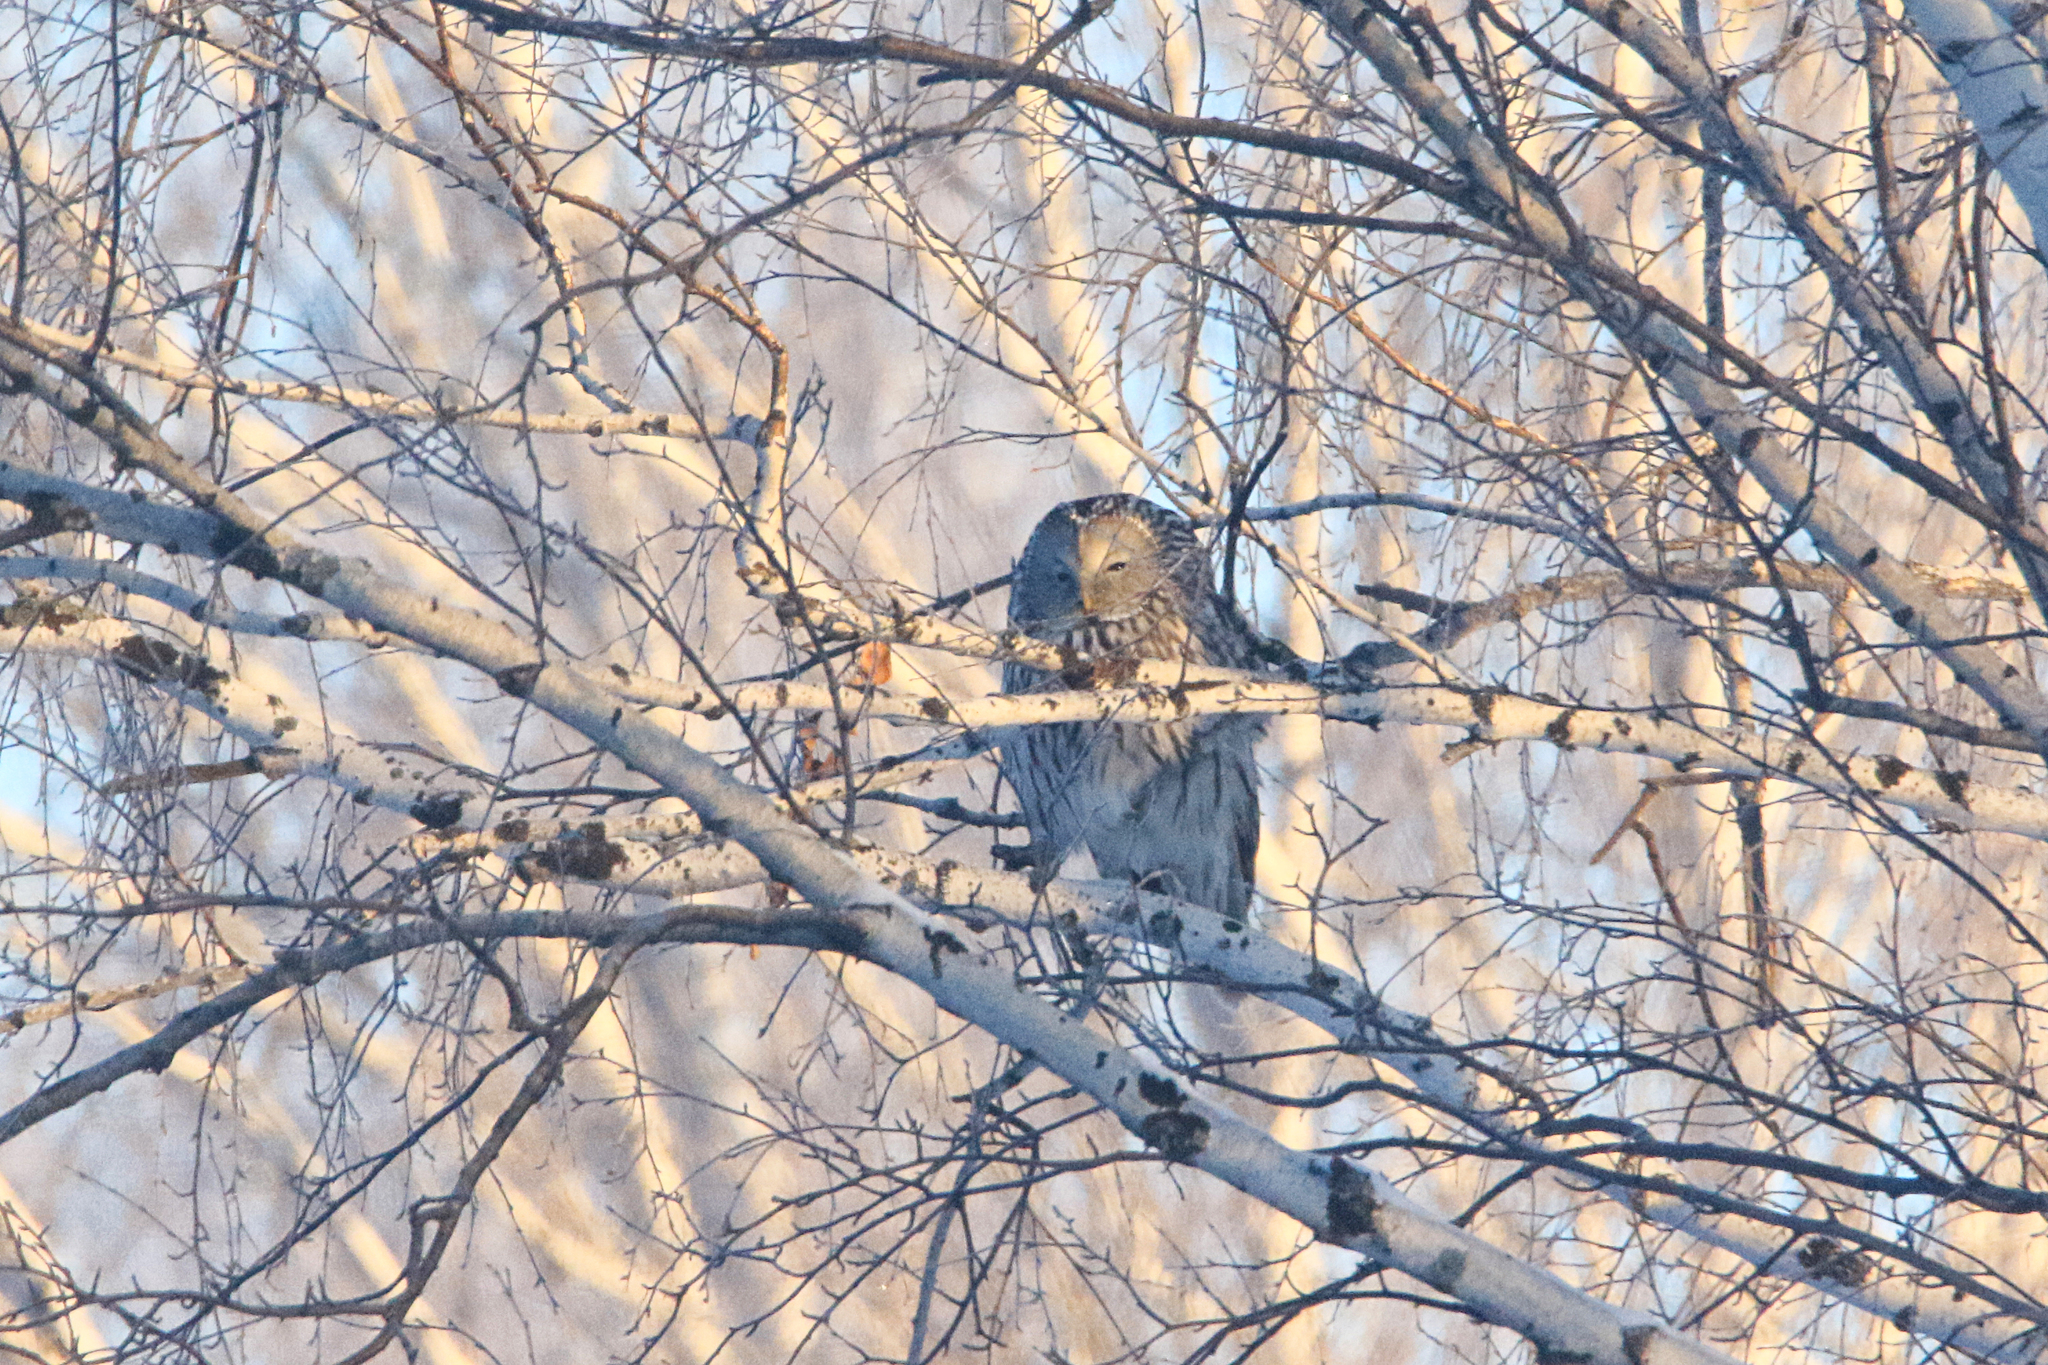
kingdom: Animalia
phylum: Chordata
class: Aves
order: Strigiformes
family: Strigidae
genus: Strix
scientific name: Strix uralensis
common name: Ural owl
